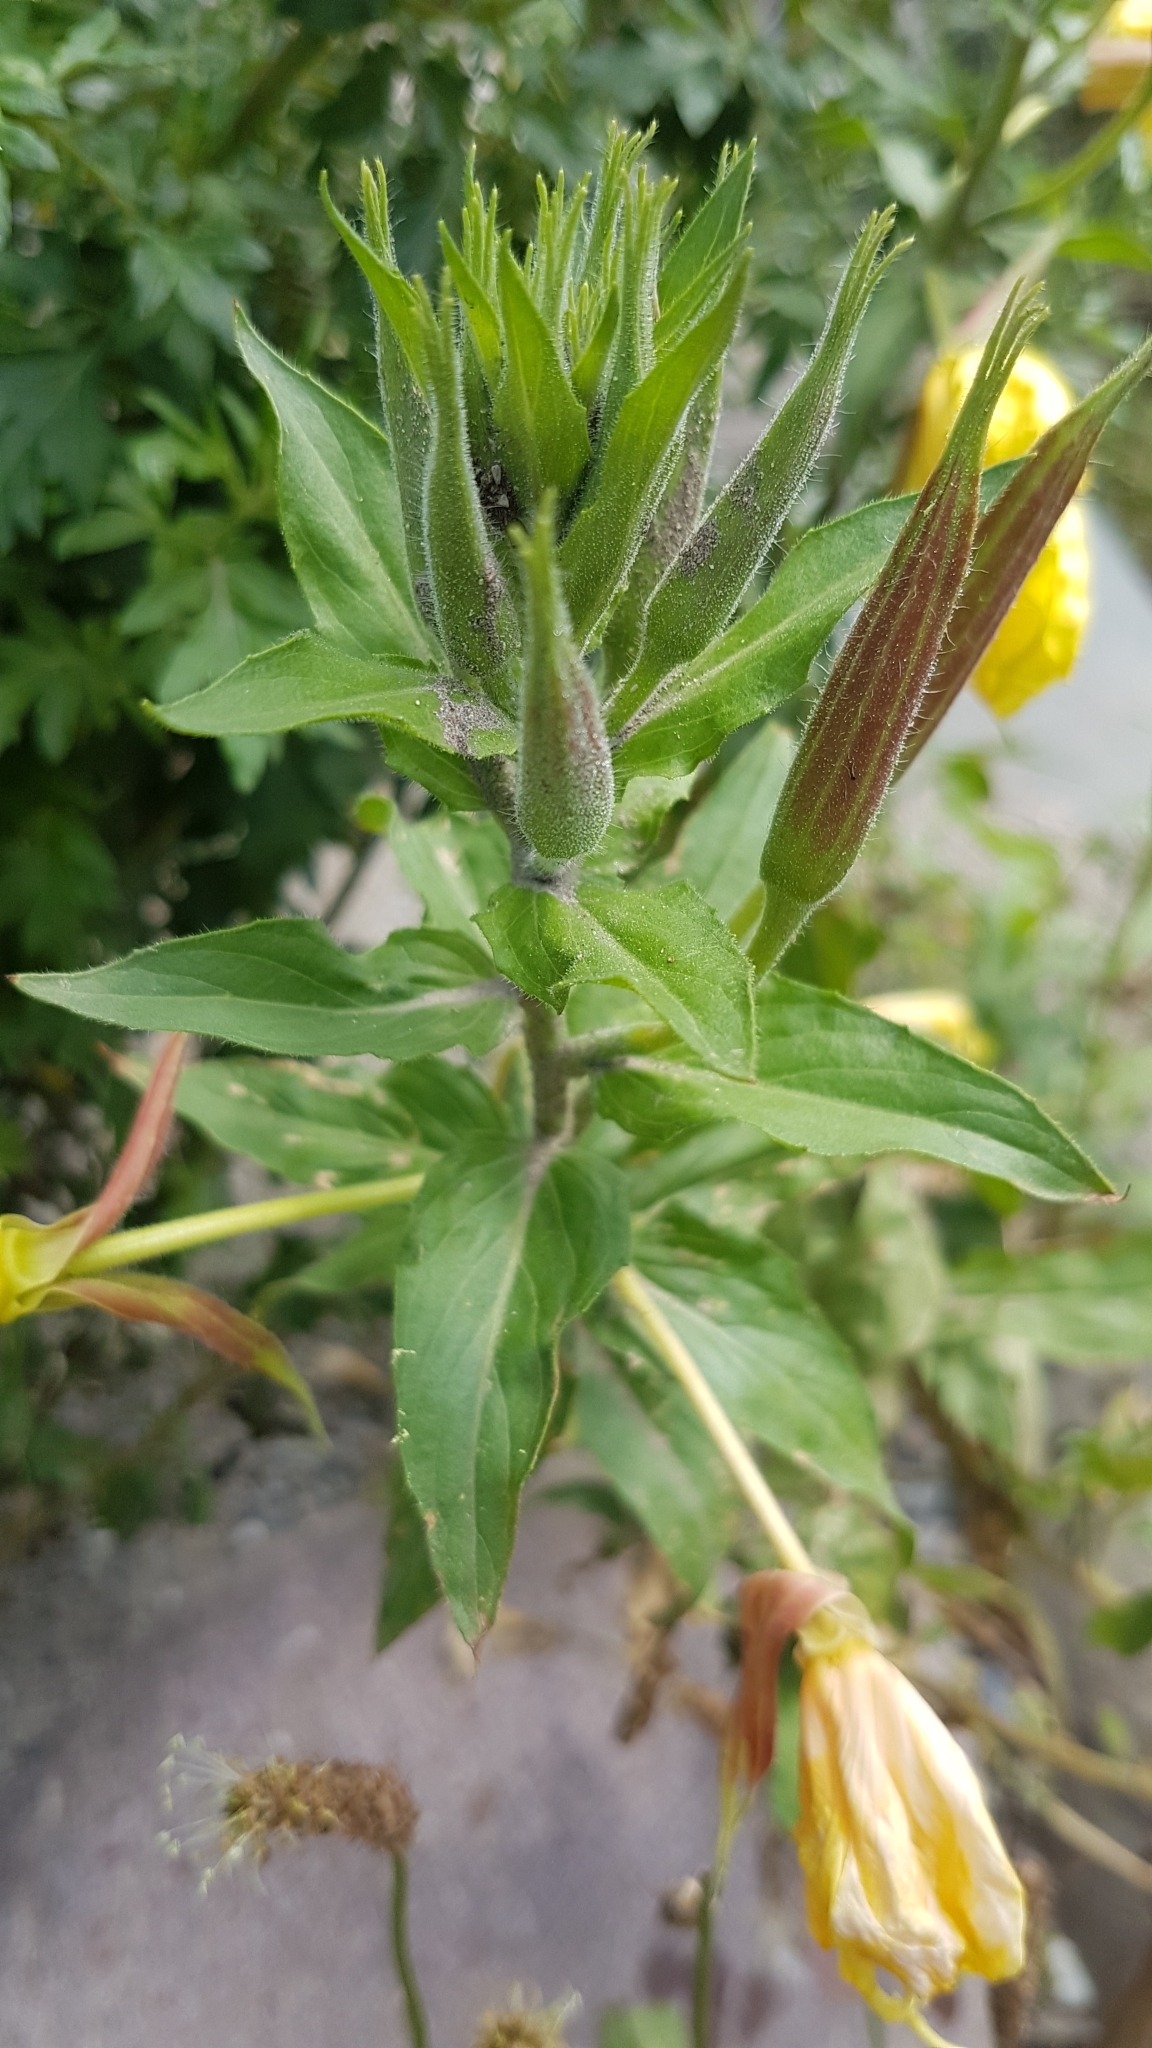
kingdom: Plantae
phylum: Tracheophyta
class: Magnoliopsida
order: Myrtales
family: Onagraceae
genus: Oenothera
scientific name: Oenothera glazioviana
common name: Large-flowered evening-primrose
